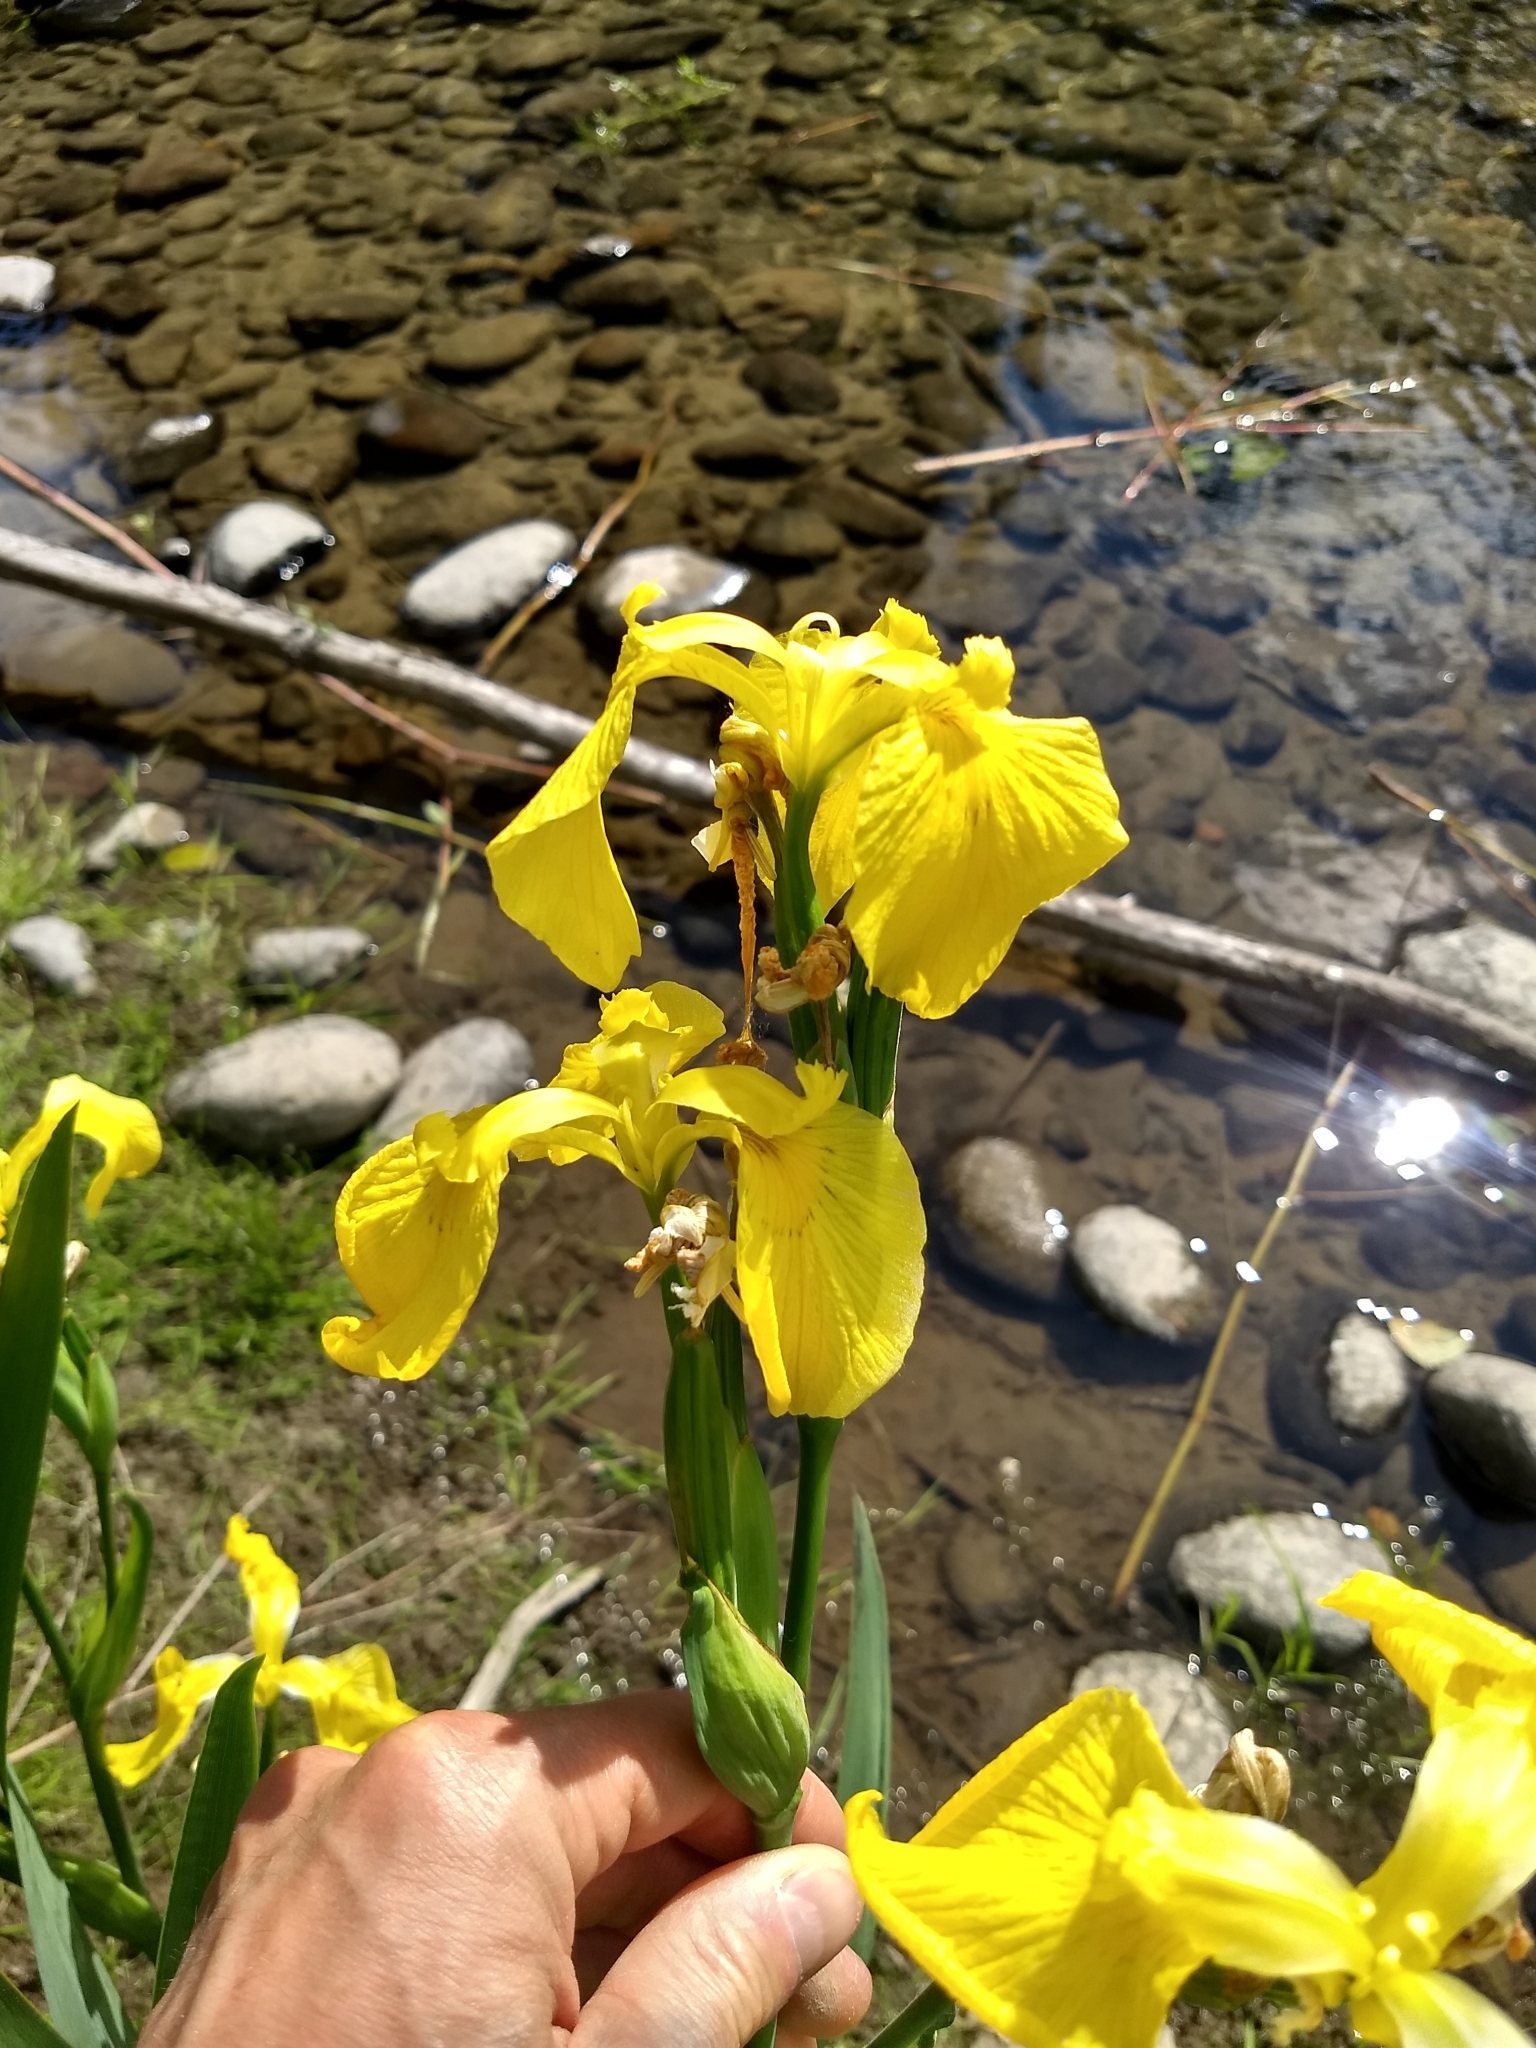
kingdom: Plantae
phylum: Tracheophyta
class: Liliopsida
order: Asparagales
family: Iridaceae
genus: Iris
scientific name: Iris pseudacorus
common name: Yellow flag
